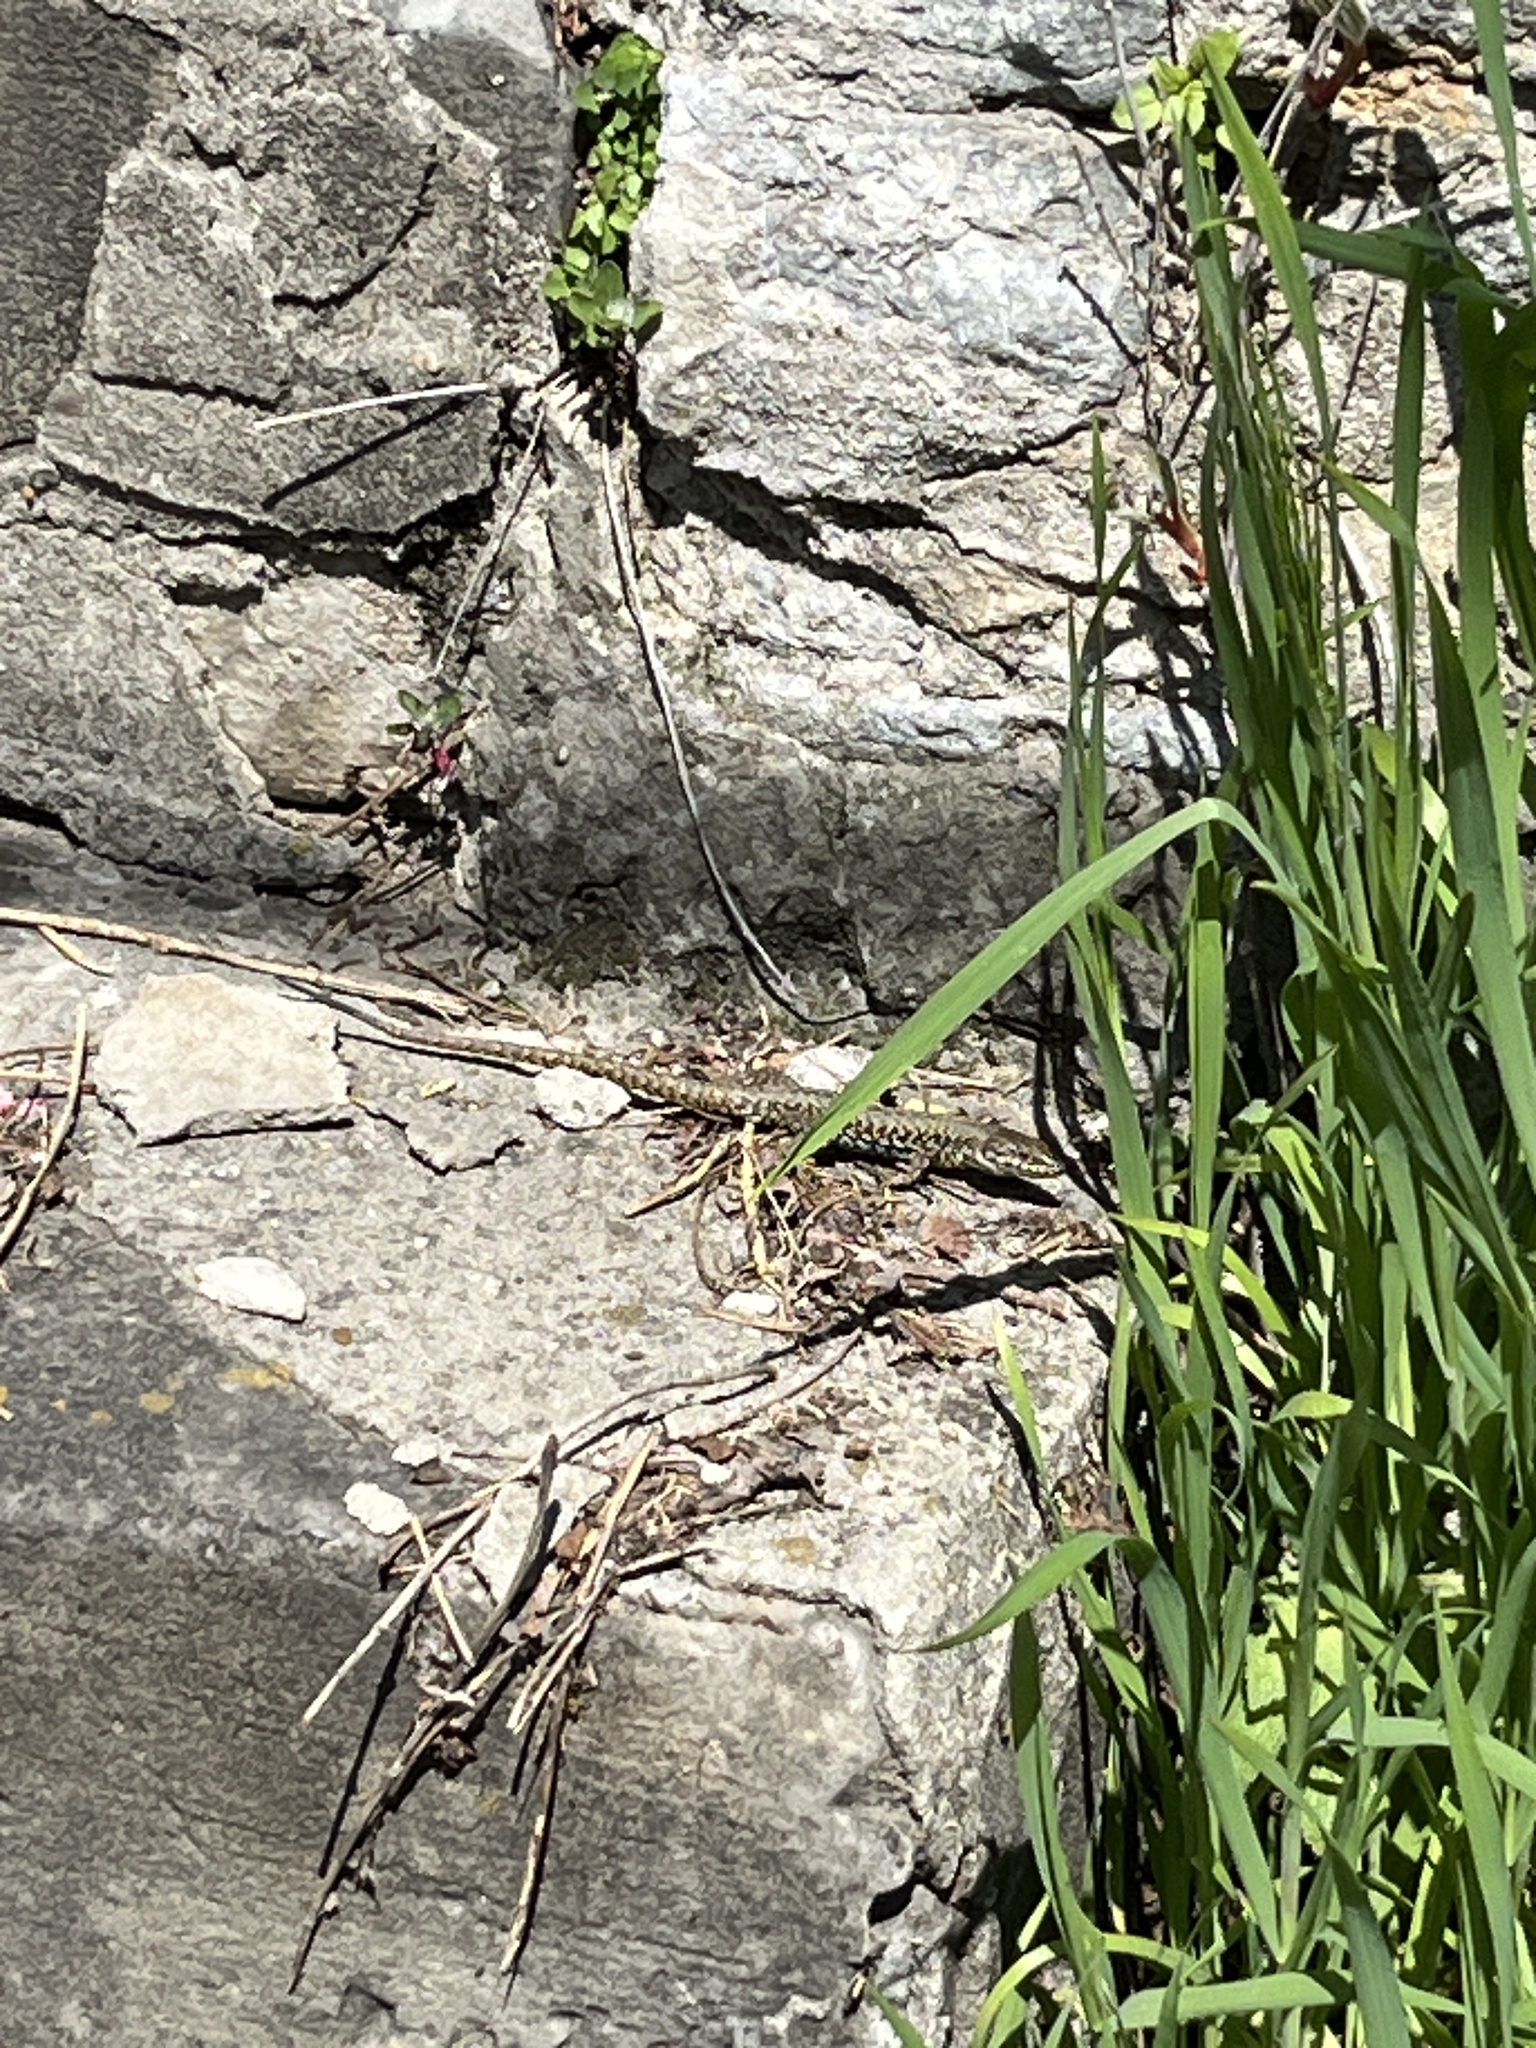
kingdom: Animalia
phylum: Chordata
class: Squamata
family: Lacertidae
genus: Podarcis
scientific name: Podarcis muralis
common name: Common wall lizard
